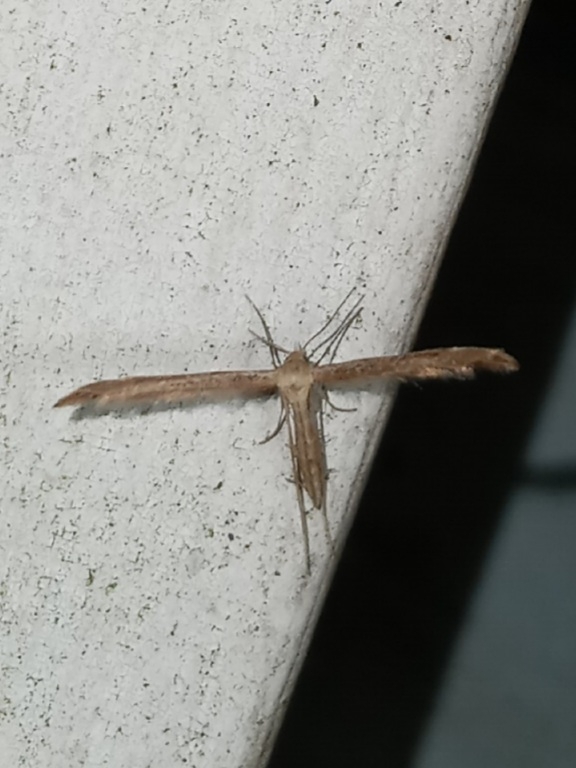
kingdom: Animalia
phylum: Arthropoda
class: Insecta
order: Lepidoptera
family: Pterophoridae
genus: Lioptilodes
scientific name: Lioptilodes albistriolatus
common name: Moth
